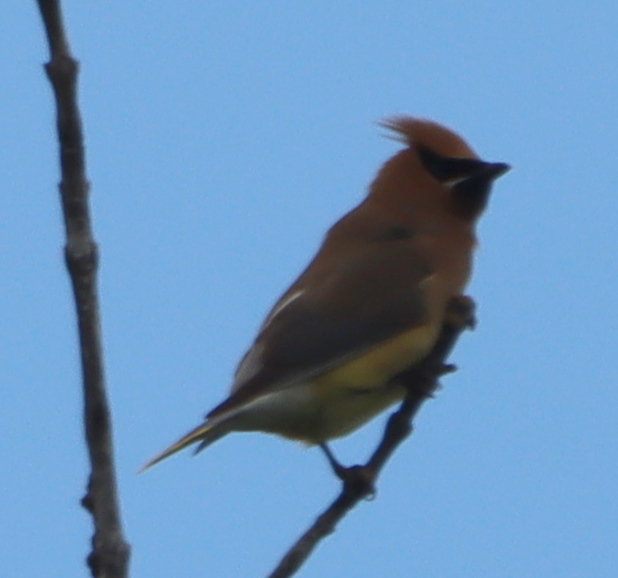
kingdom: Animalia
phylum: Chordata
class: Aves
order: Passeriformes
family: Bombycillidae
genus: Bombycilla
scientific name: Bombycilla cedrorum
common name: Cedar waxwing
